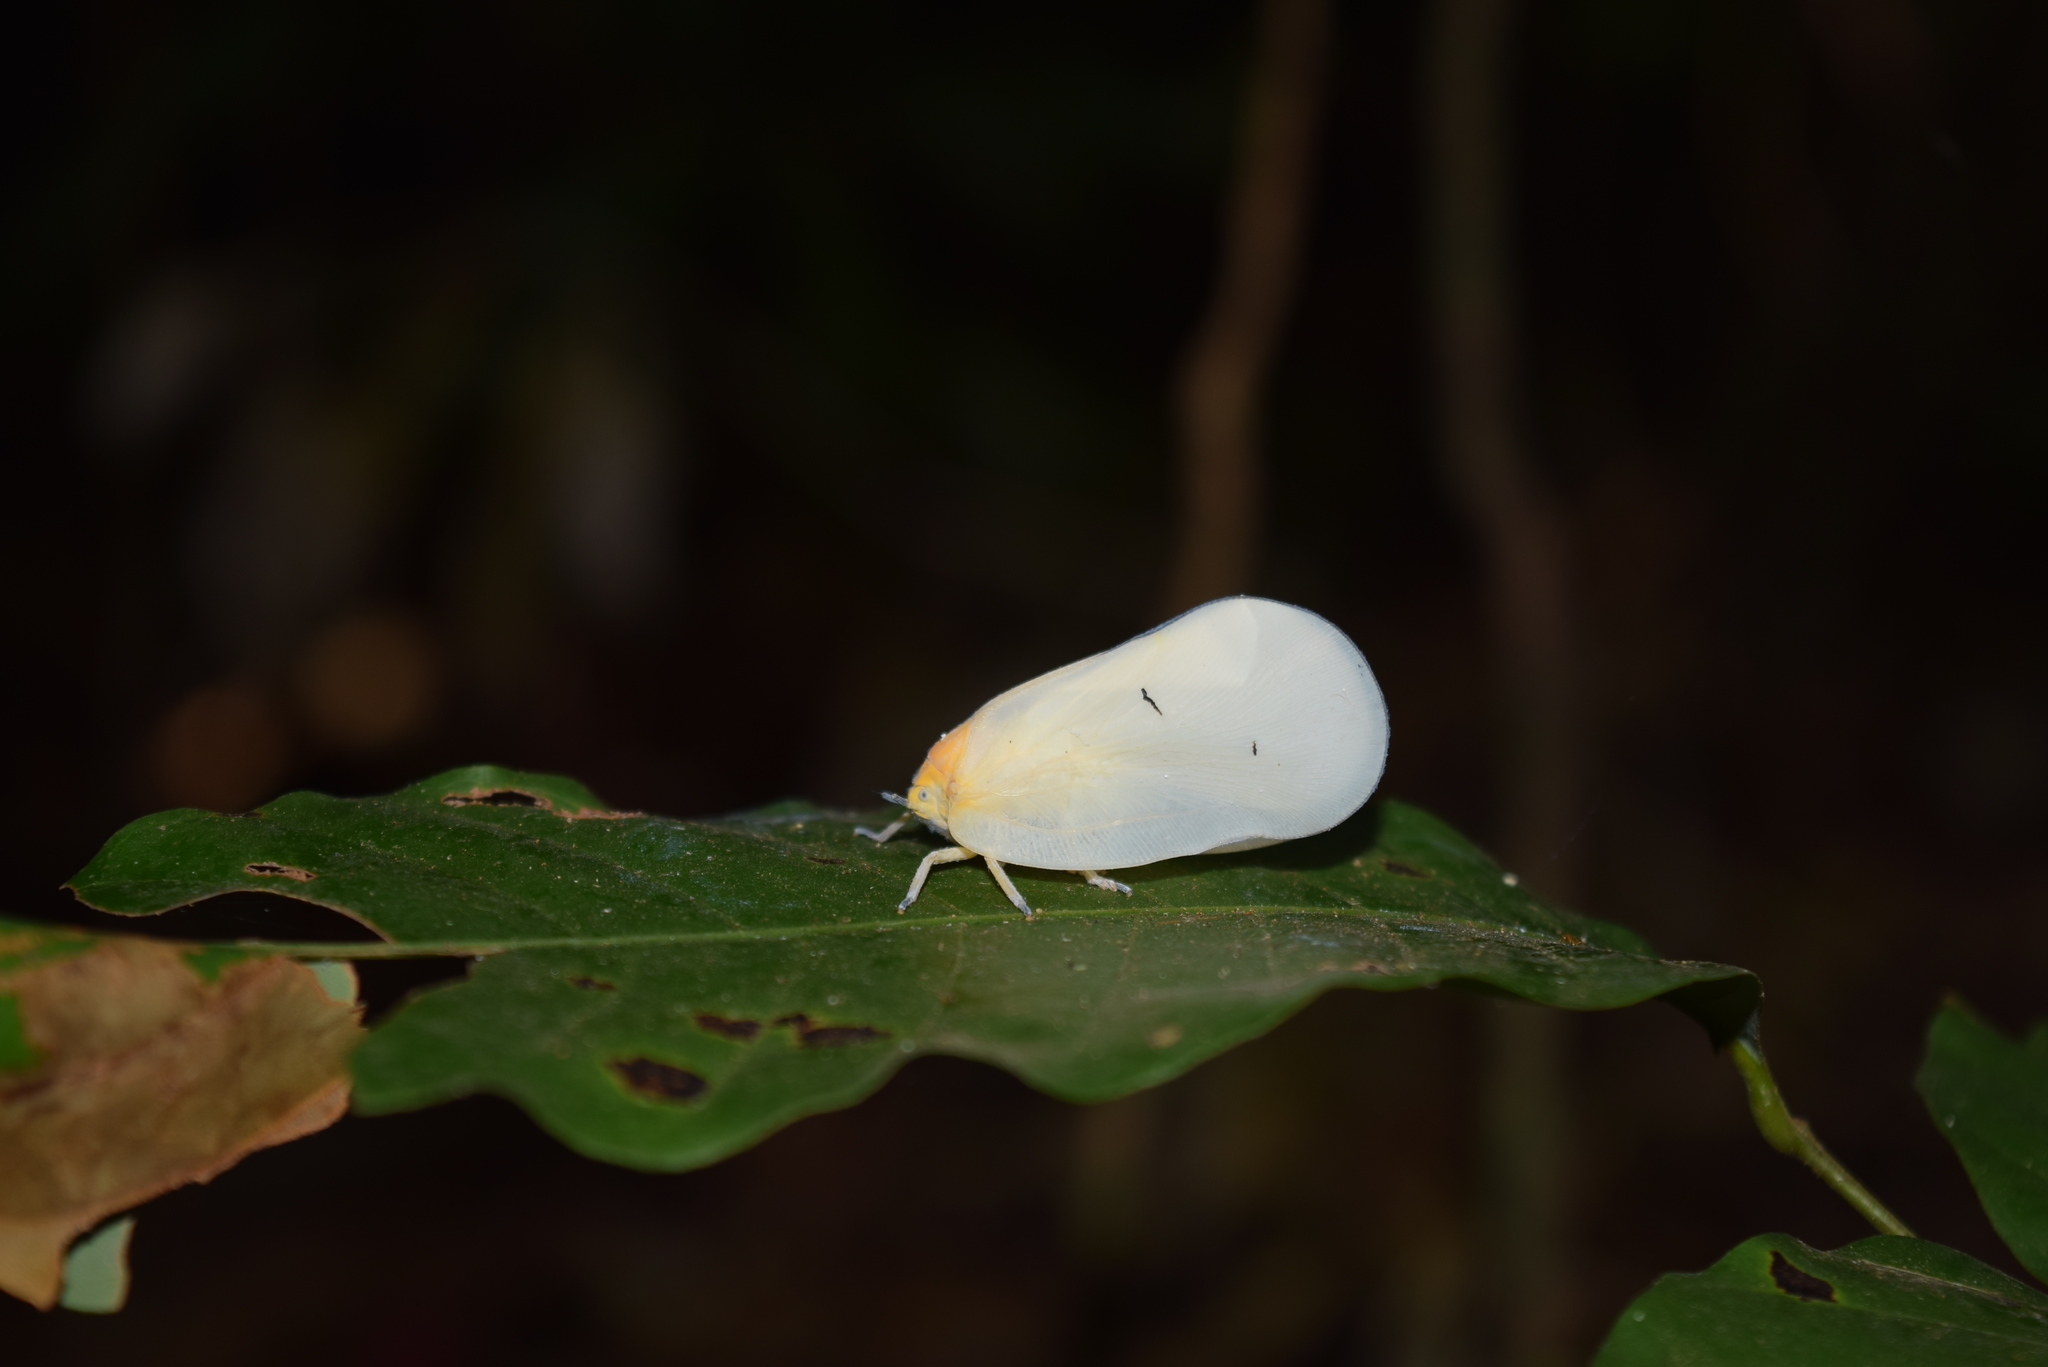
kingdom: Animalia
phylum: Arthropoda
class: Insecta
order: Hemiptera
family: Flatidae
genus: Flatida
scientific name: Flatida viridula
